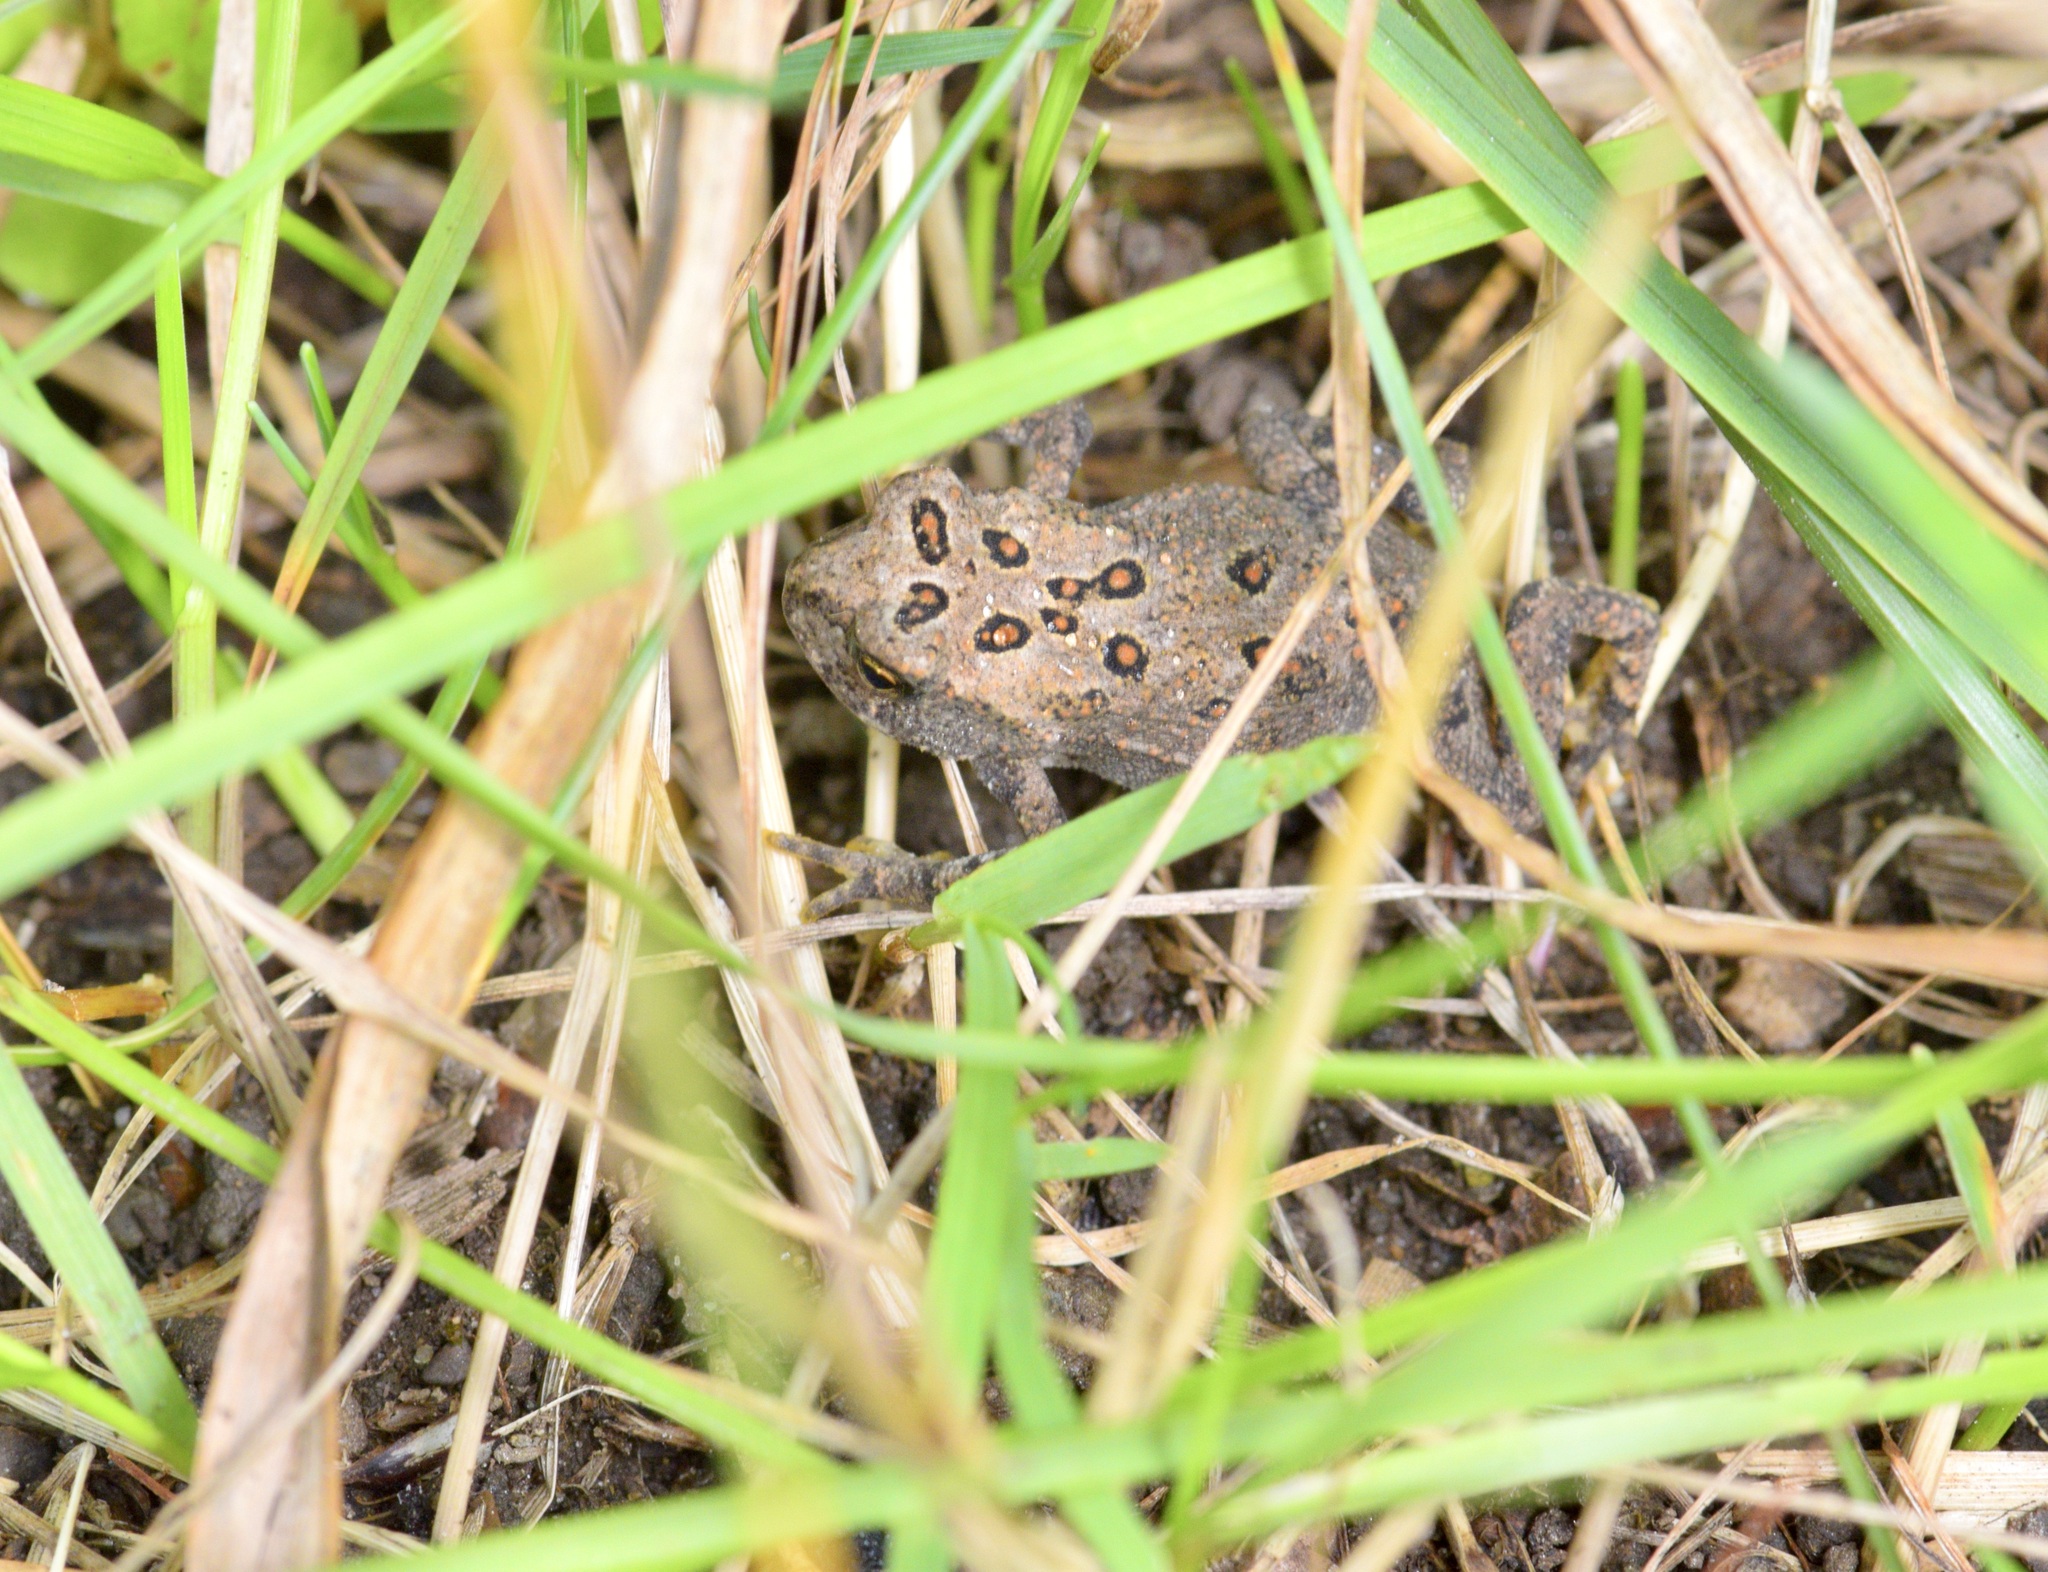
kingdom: Animalia
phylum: Chordata
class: Amphibia
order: Anura
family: Bufonidae
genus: Anaxyrus
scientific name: Anaxyrus americanus
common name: American toad
